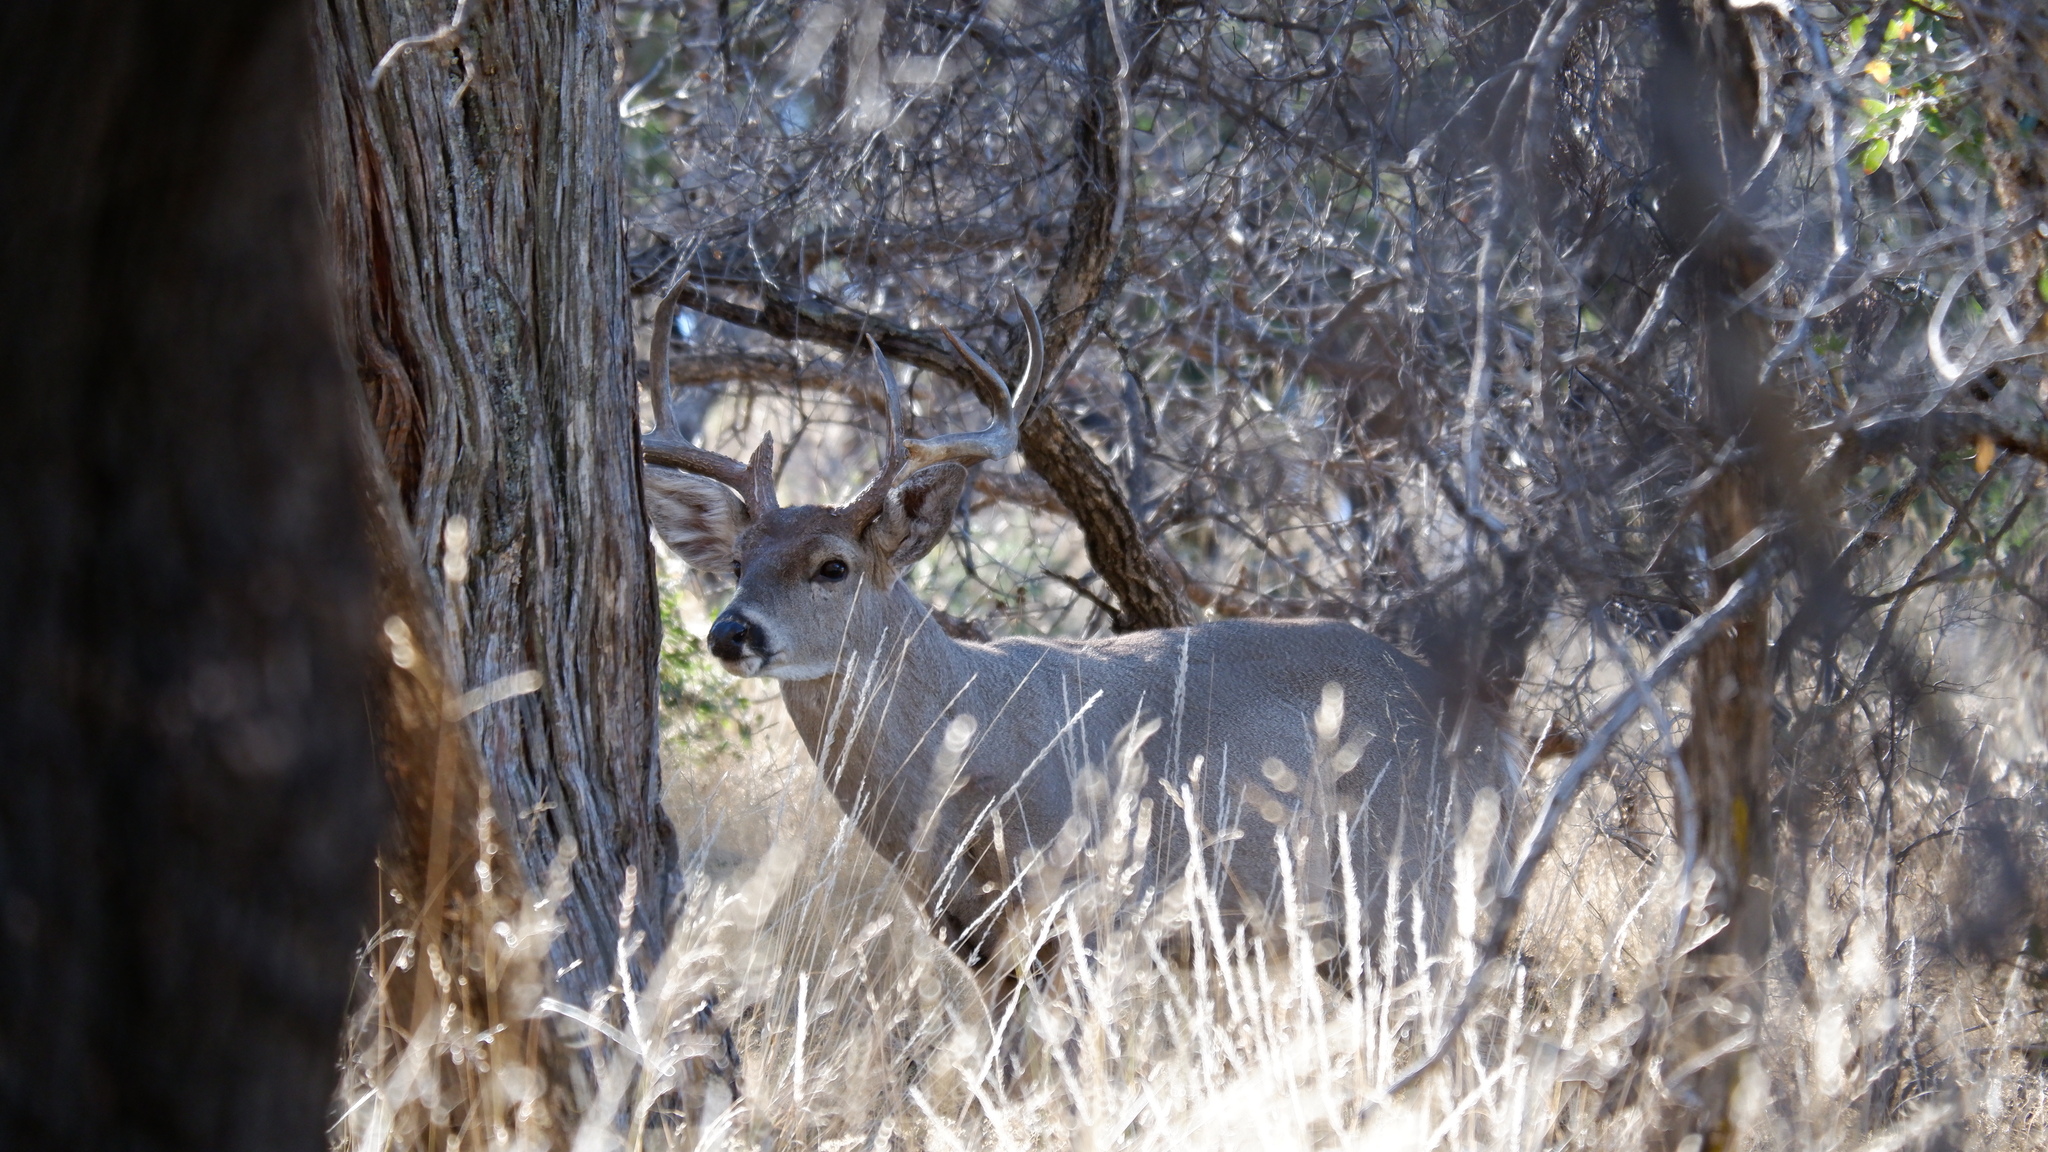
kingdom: Animalia
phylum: Chordata
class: Mammalia
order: Artiodactyla
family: Cervidae
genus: Odocoileus
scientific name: Odocoileus virginianus
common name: White-tailed deer
